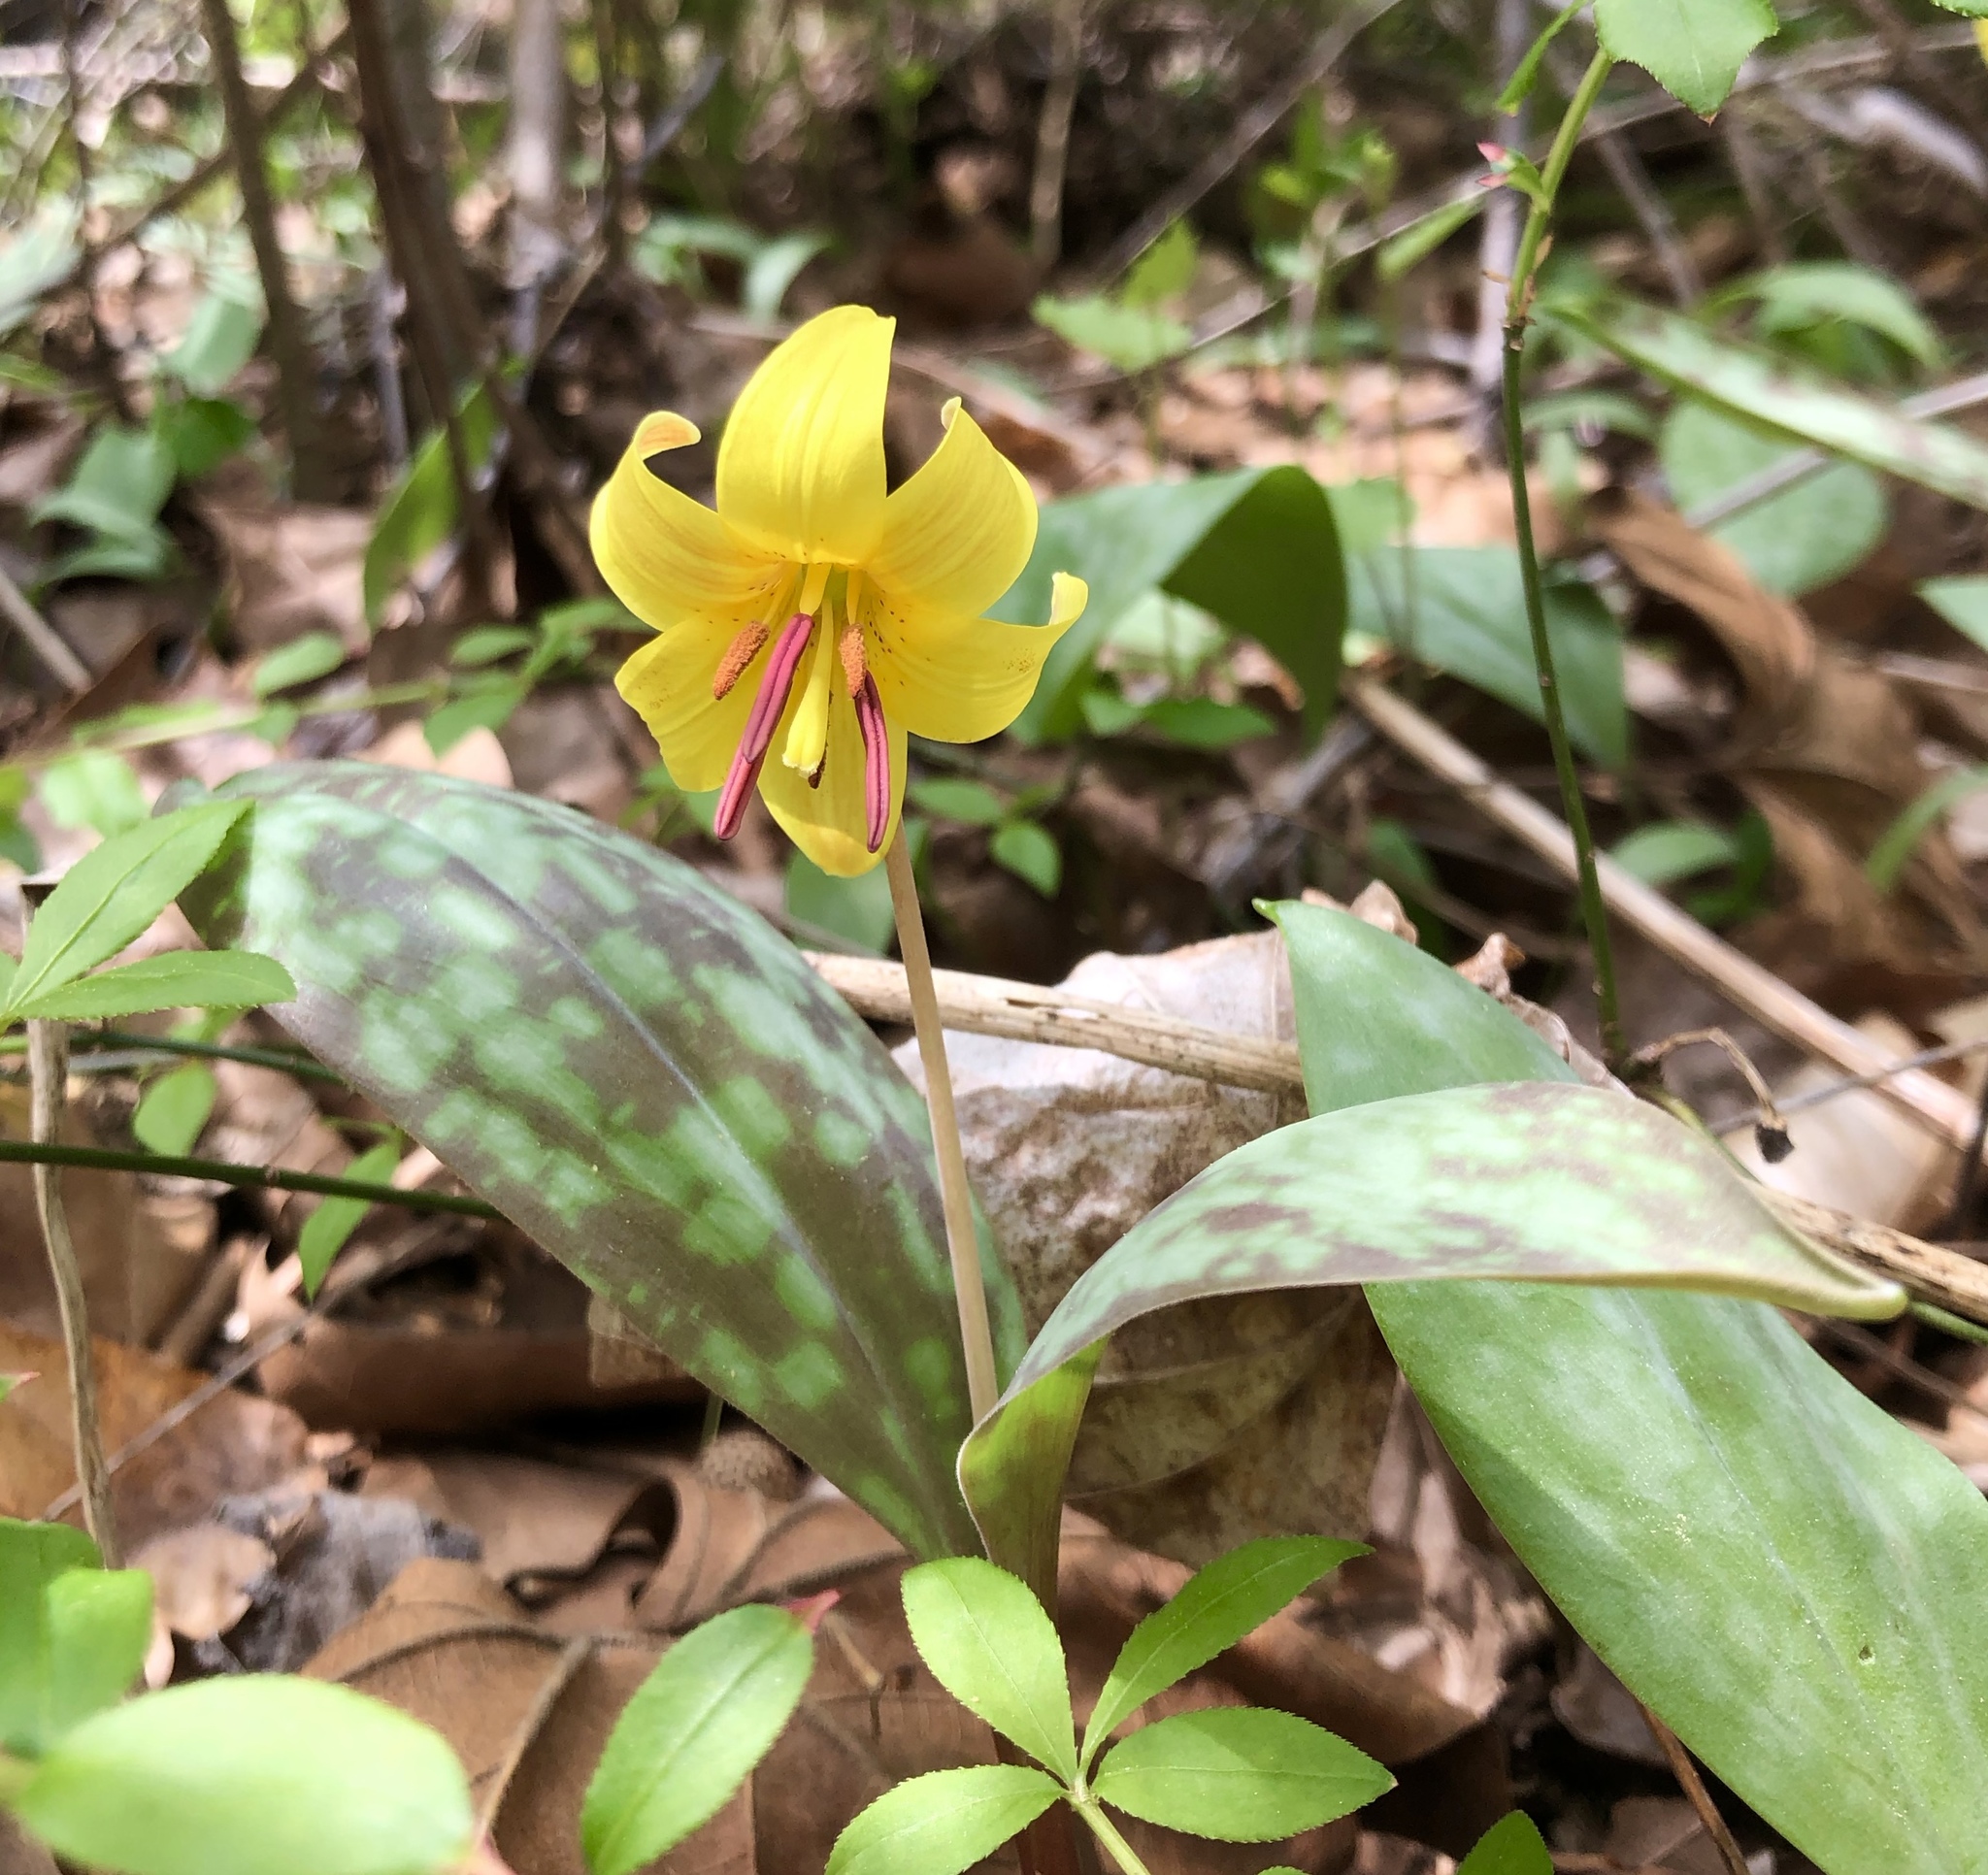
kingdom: Plantae
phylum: Tracheophyta
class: Liliopsida
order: Liliales
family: Liliaceae
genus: Erythronium
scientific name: Erythronium americanum
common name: Yellow adder's-tongue
